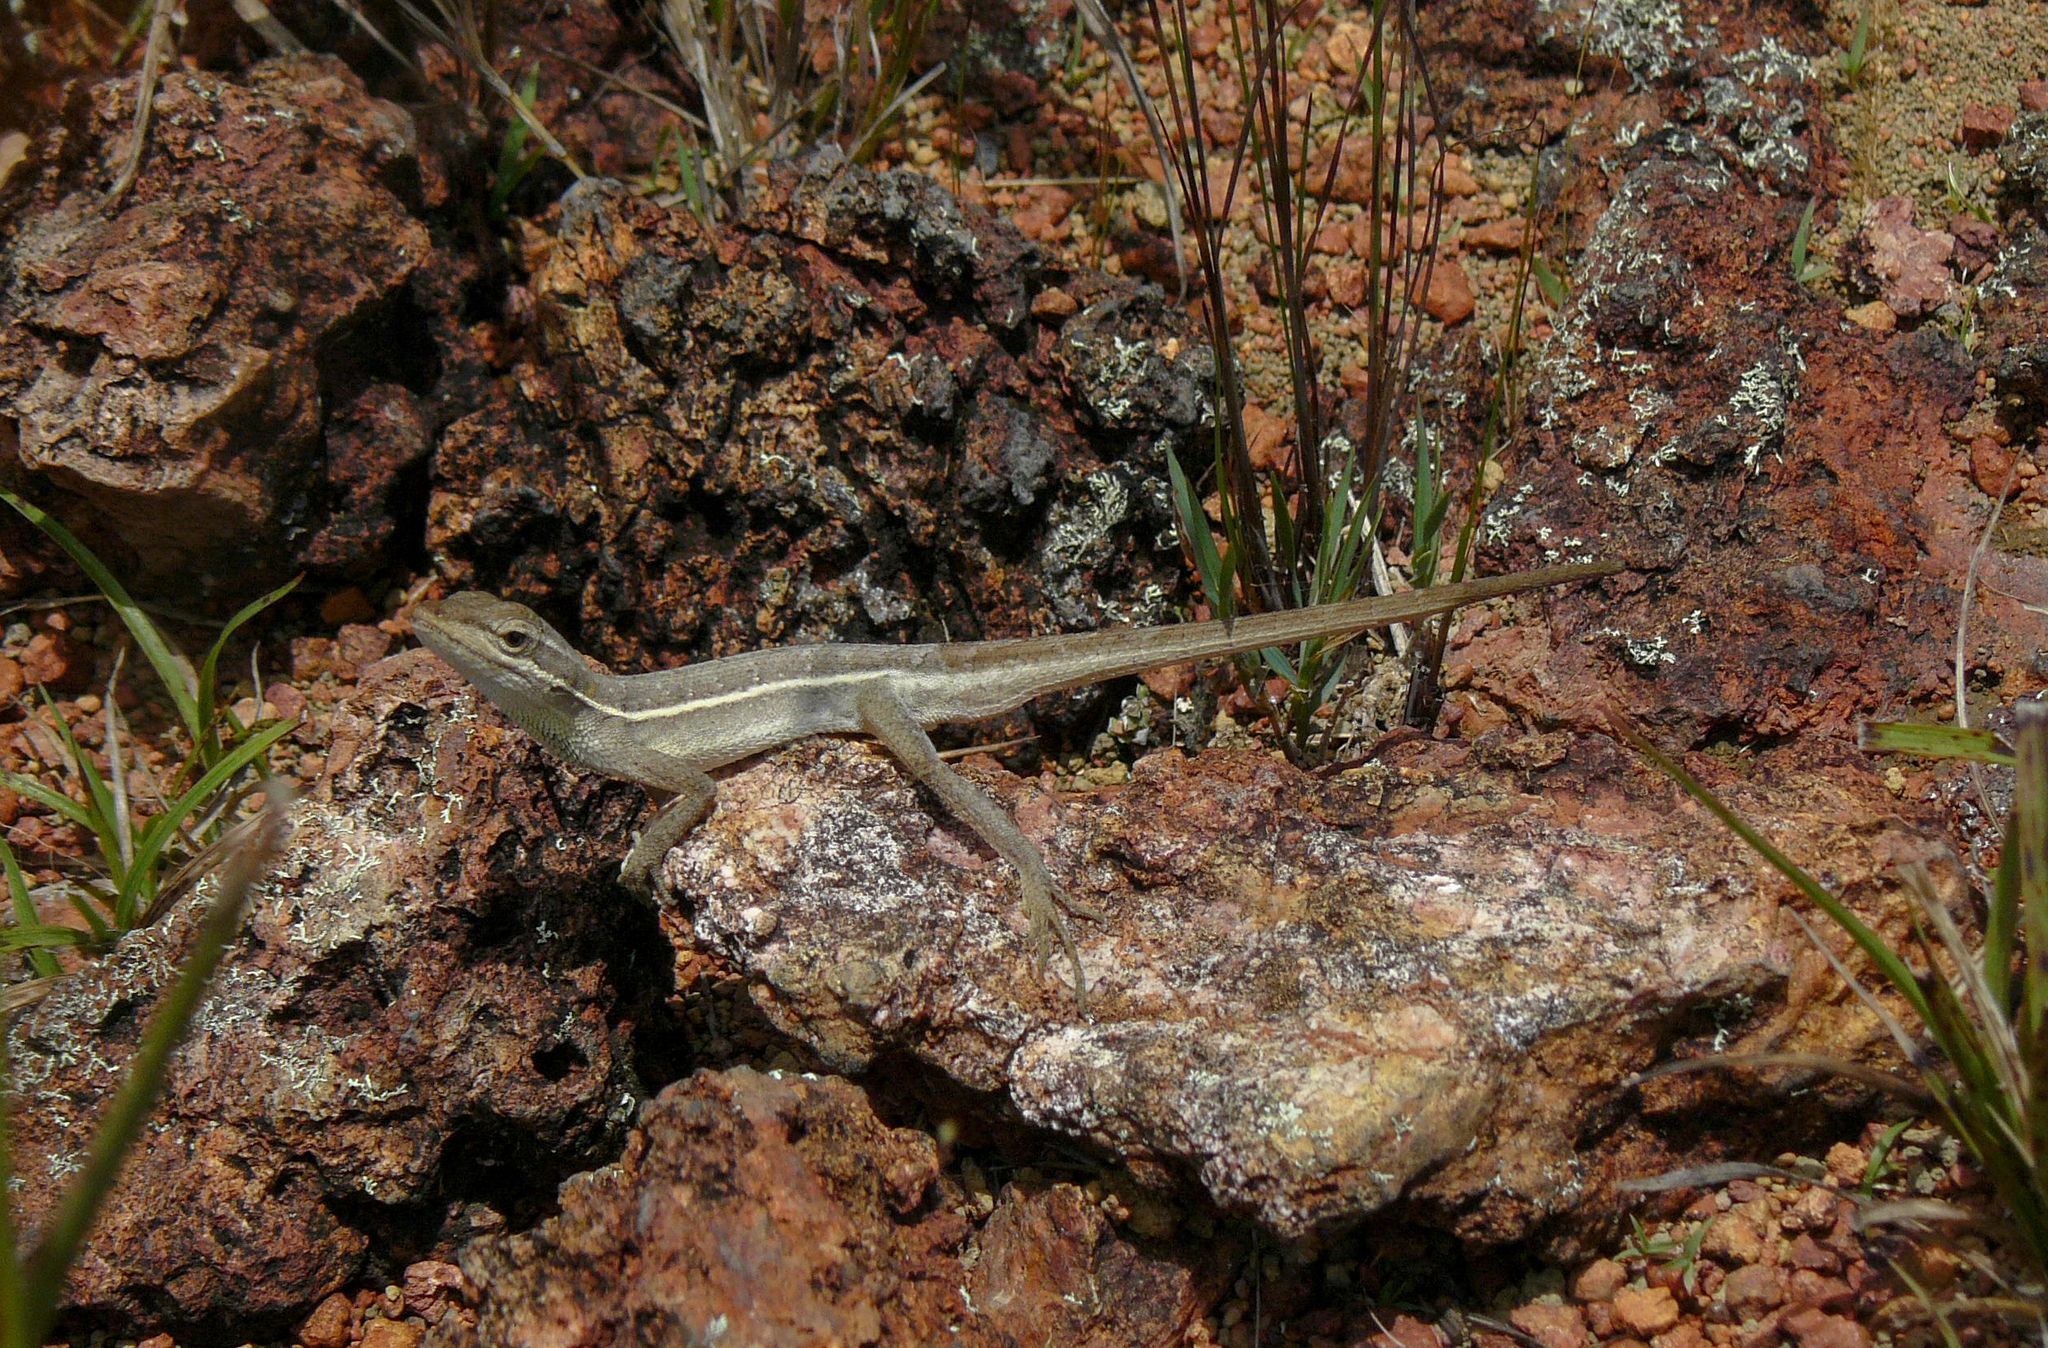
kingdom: Animalia
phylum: Chordata
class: Squamata
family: Dactyloidae
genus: Anolis
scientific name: Anolis auratus
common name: Grass anole
